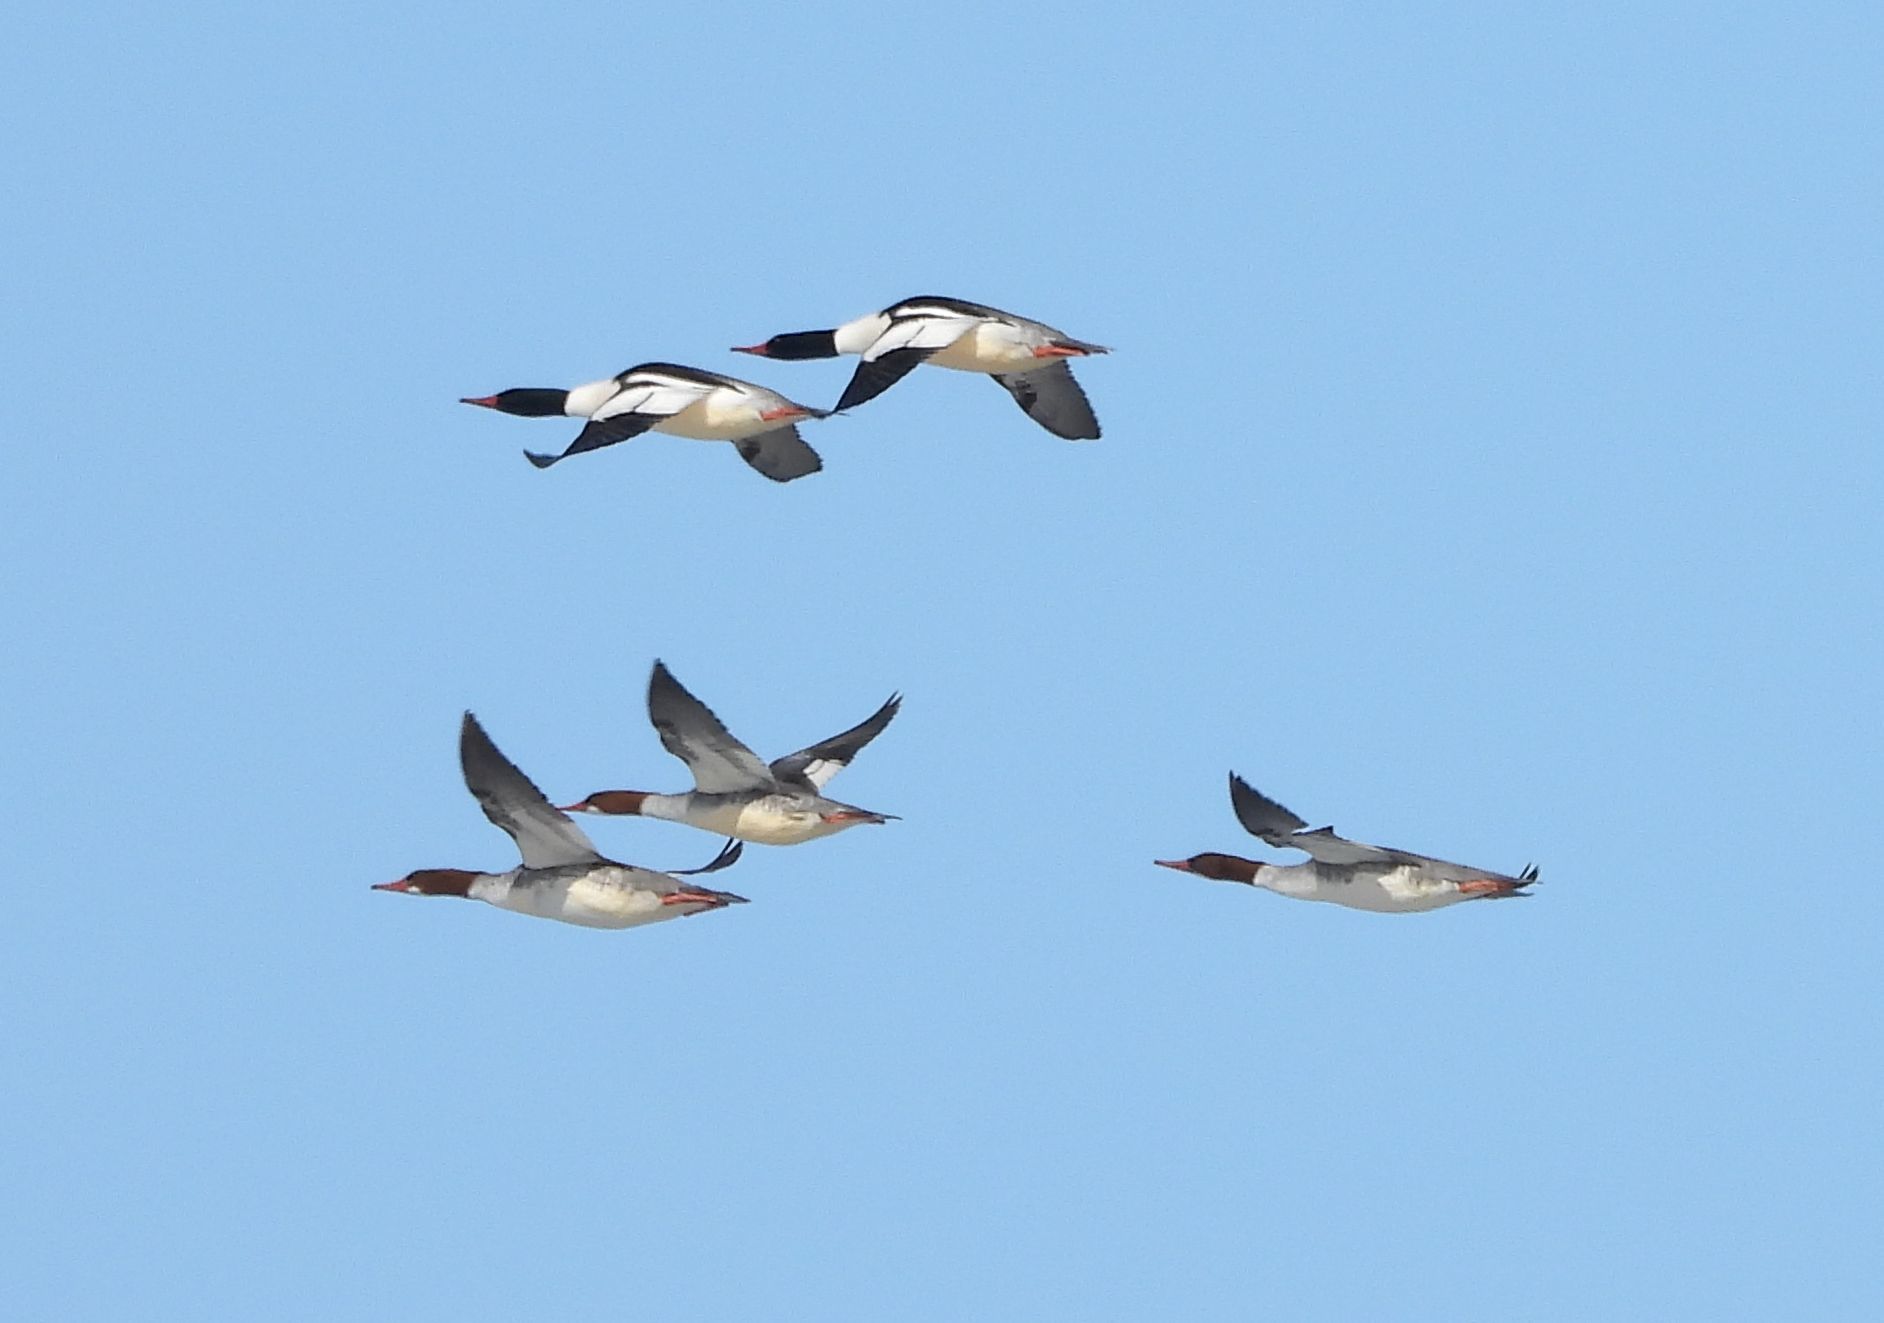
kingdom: Animalia
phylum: Chordata
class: Aves
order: Anseriformes
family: Anatidae
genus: Mergus
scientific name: Mergus merganser
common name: Common merganser
